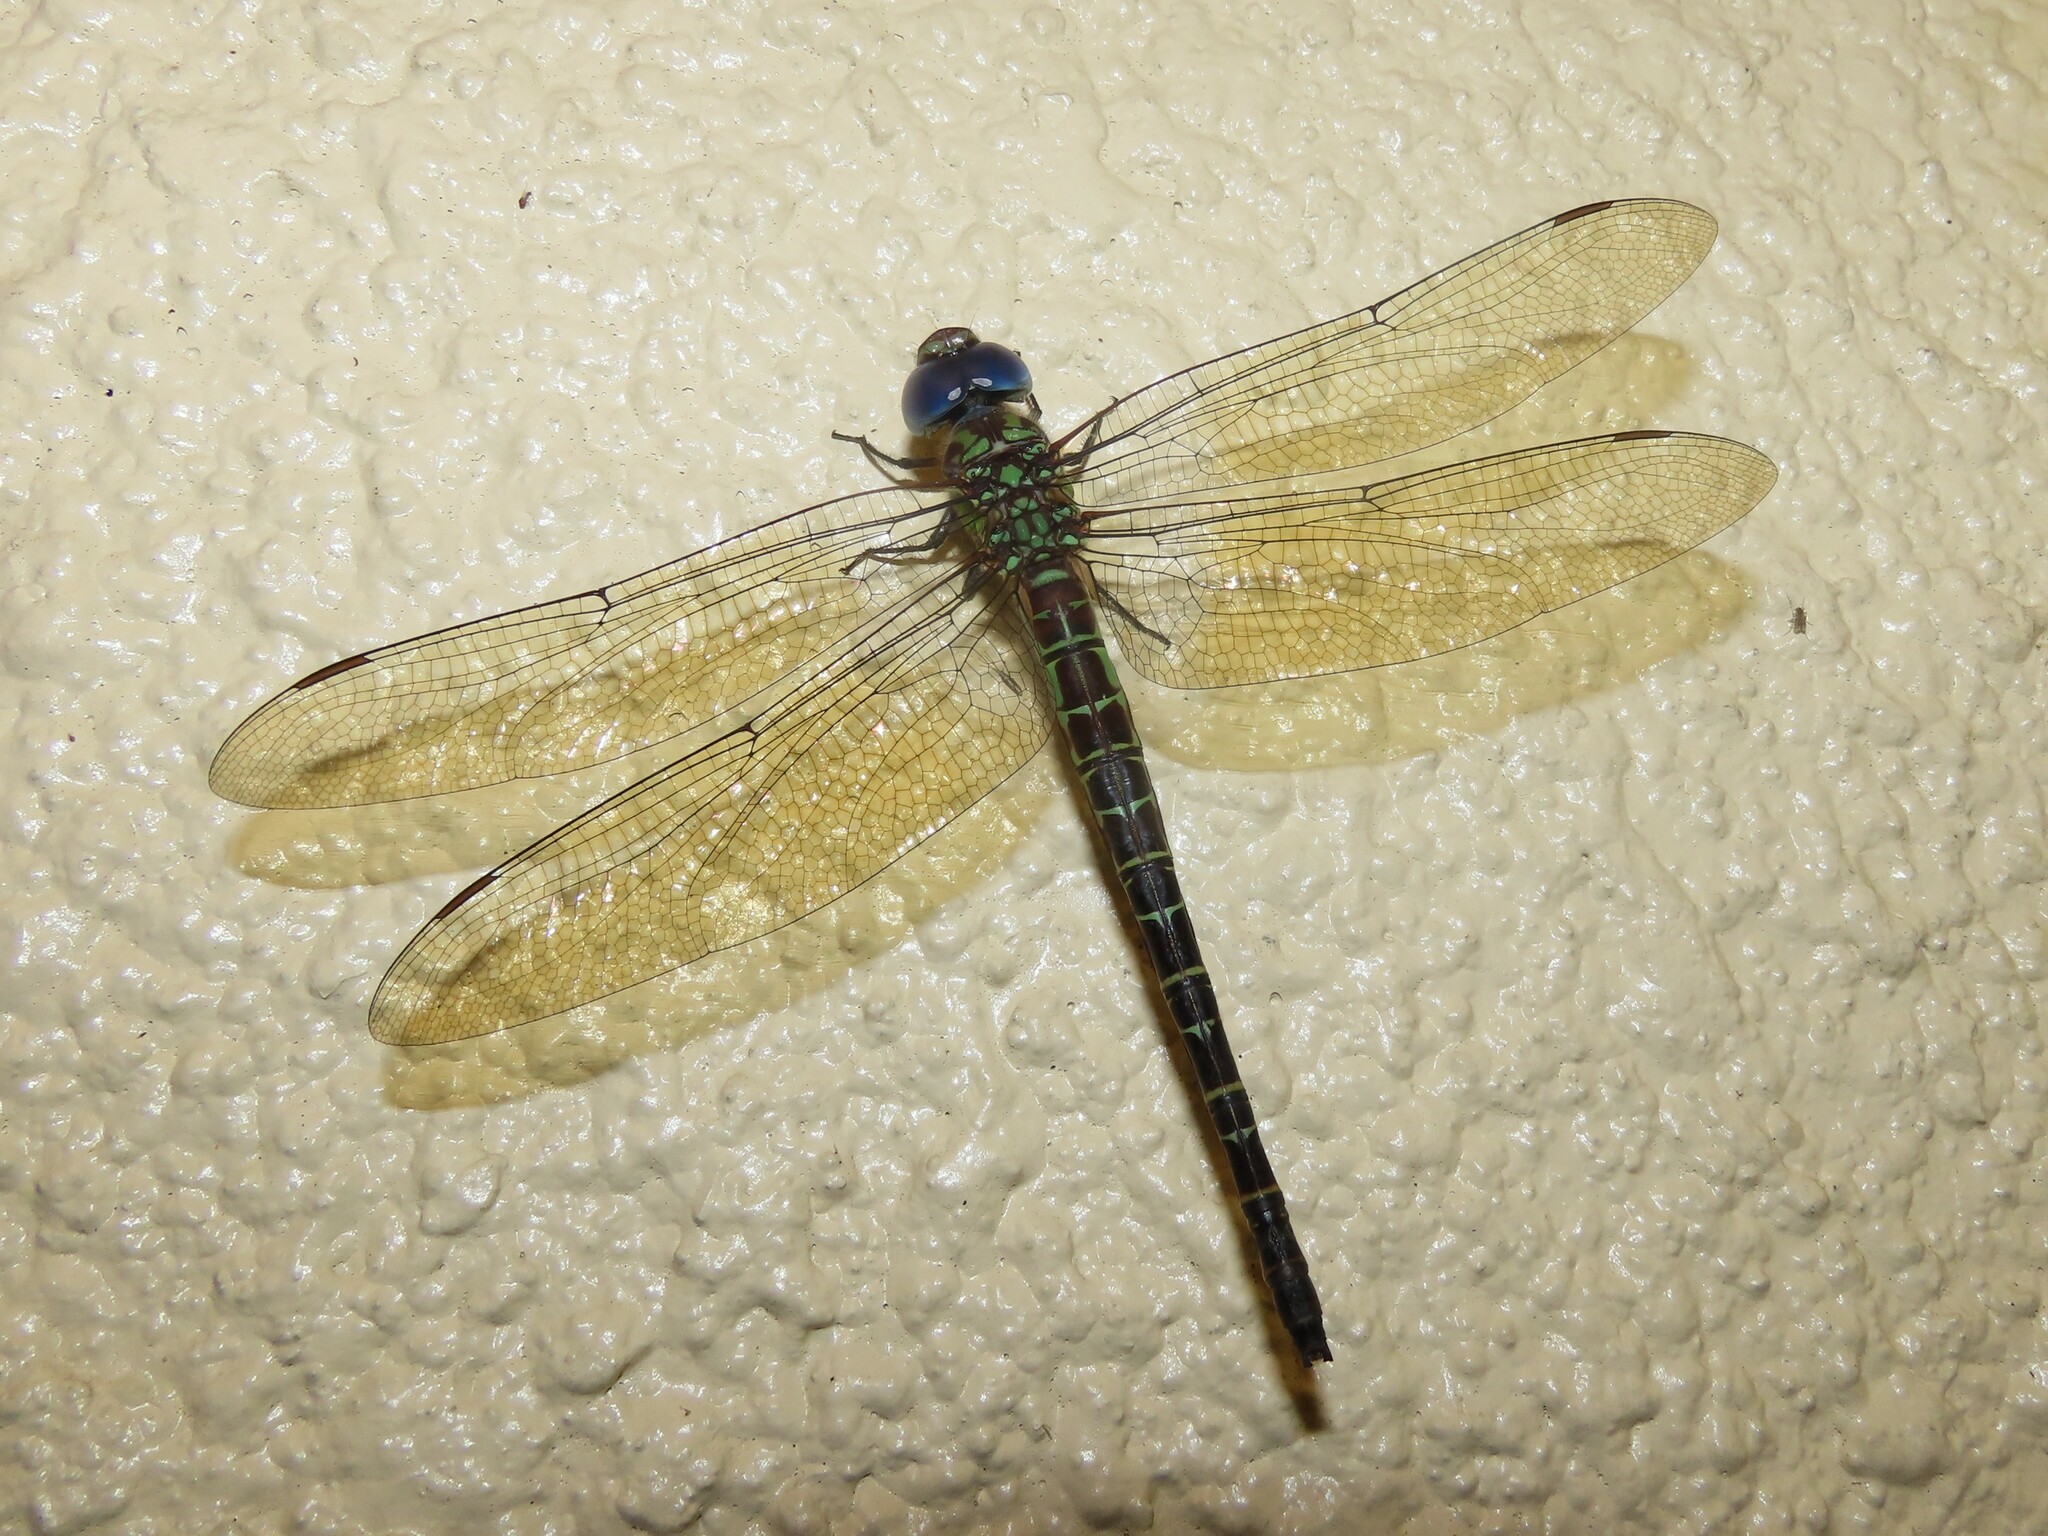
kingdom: Animalia
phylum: Arthropoda
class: Insecta
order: Odonata
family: Aeshnidae
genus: Coryphaeschna
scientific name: Coryphaeschna ingens
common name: Regal darner
